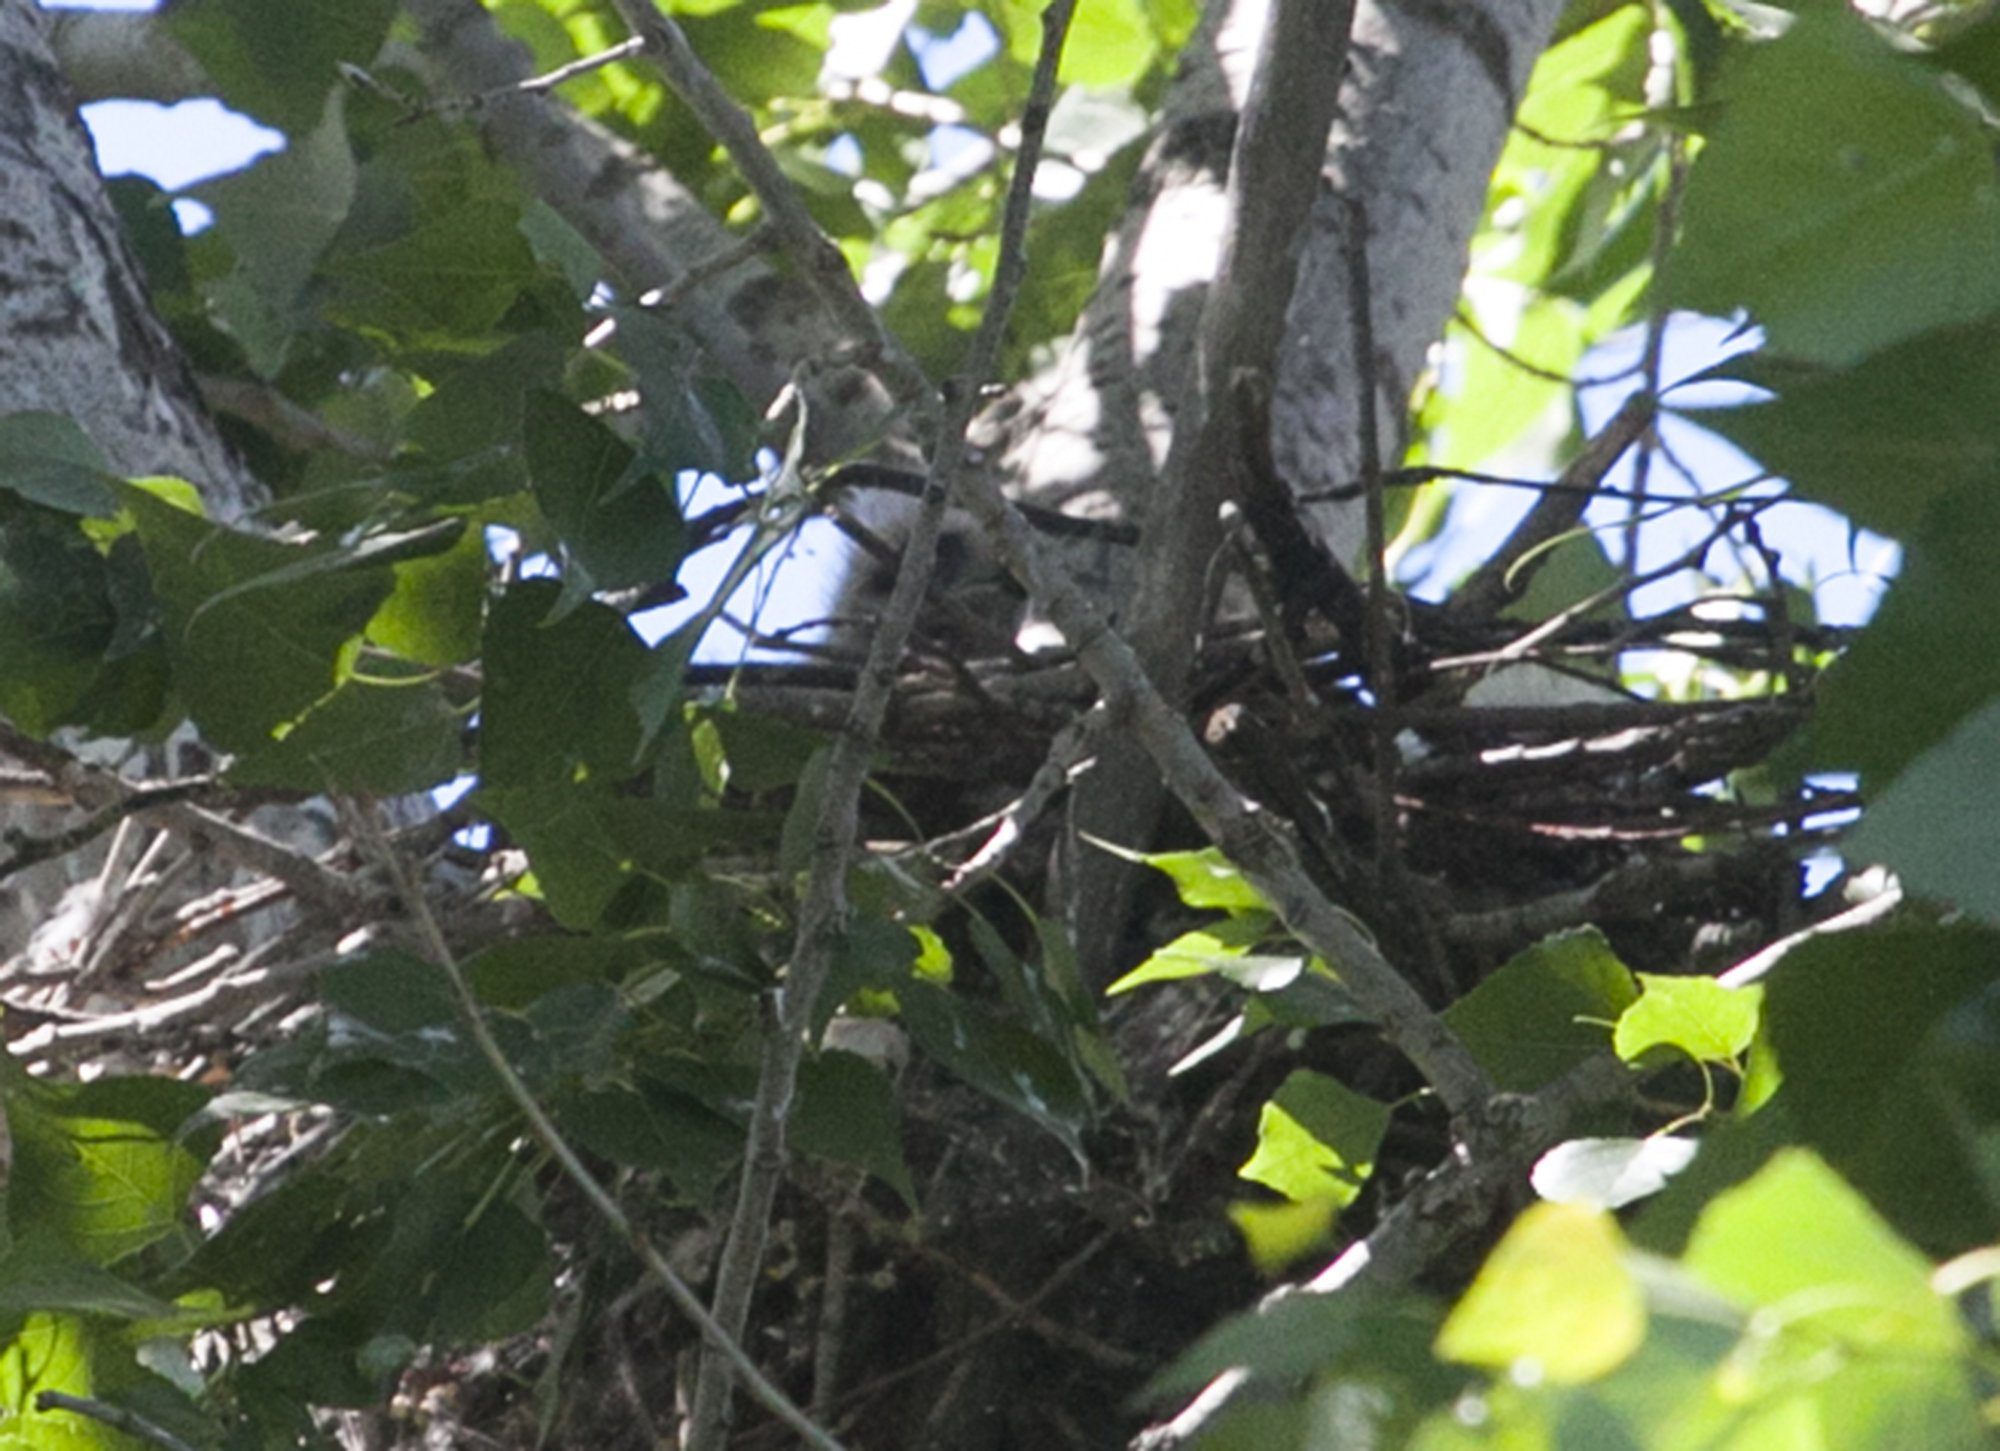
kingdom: Animalia
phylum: Chordata
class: Aves
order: Accipitriformes
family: Accipitridae
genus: Buteo
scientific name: Buteo buteo
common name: Common buzzard
